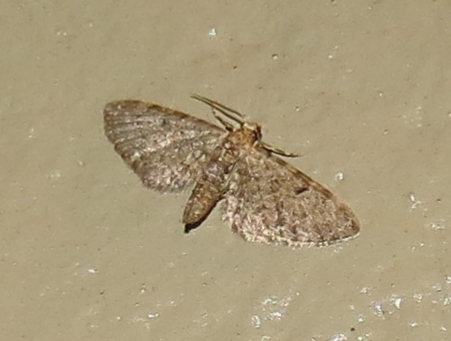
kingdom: Animalia
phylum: Arthropoda
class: Insecta
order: Lepidoptera
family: Geometridae
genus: Eupithecia
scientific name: Eupithecia miserulata
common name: Common eupithecia
